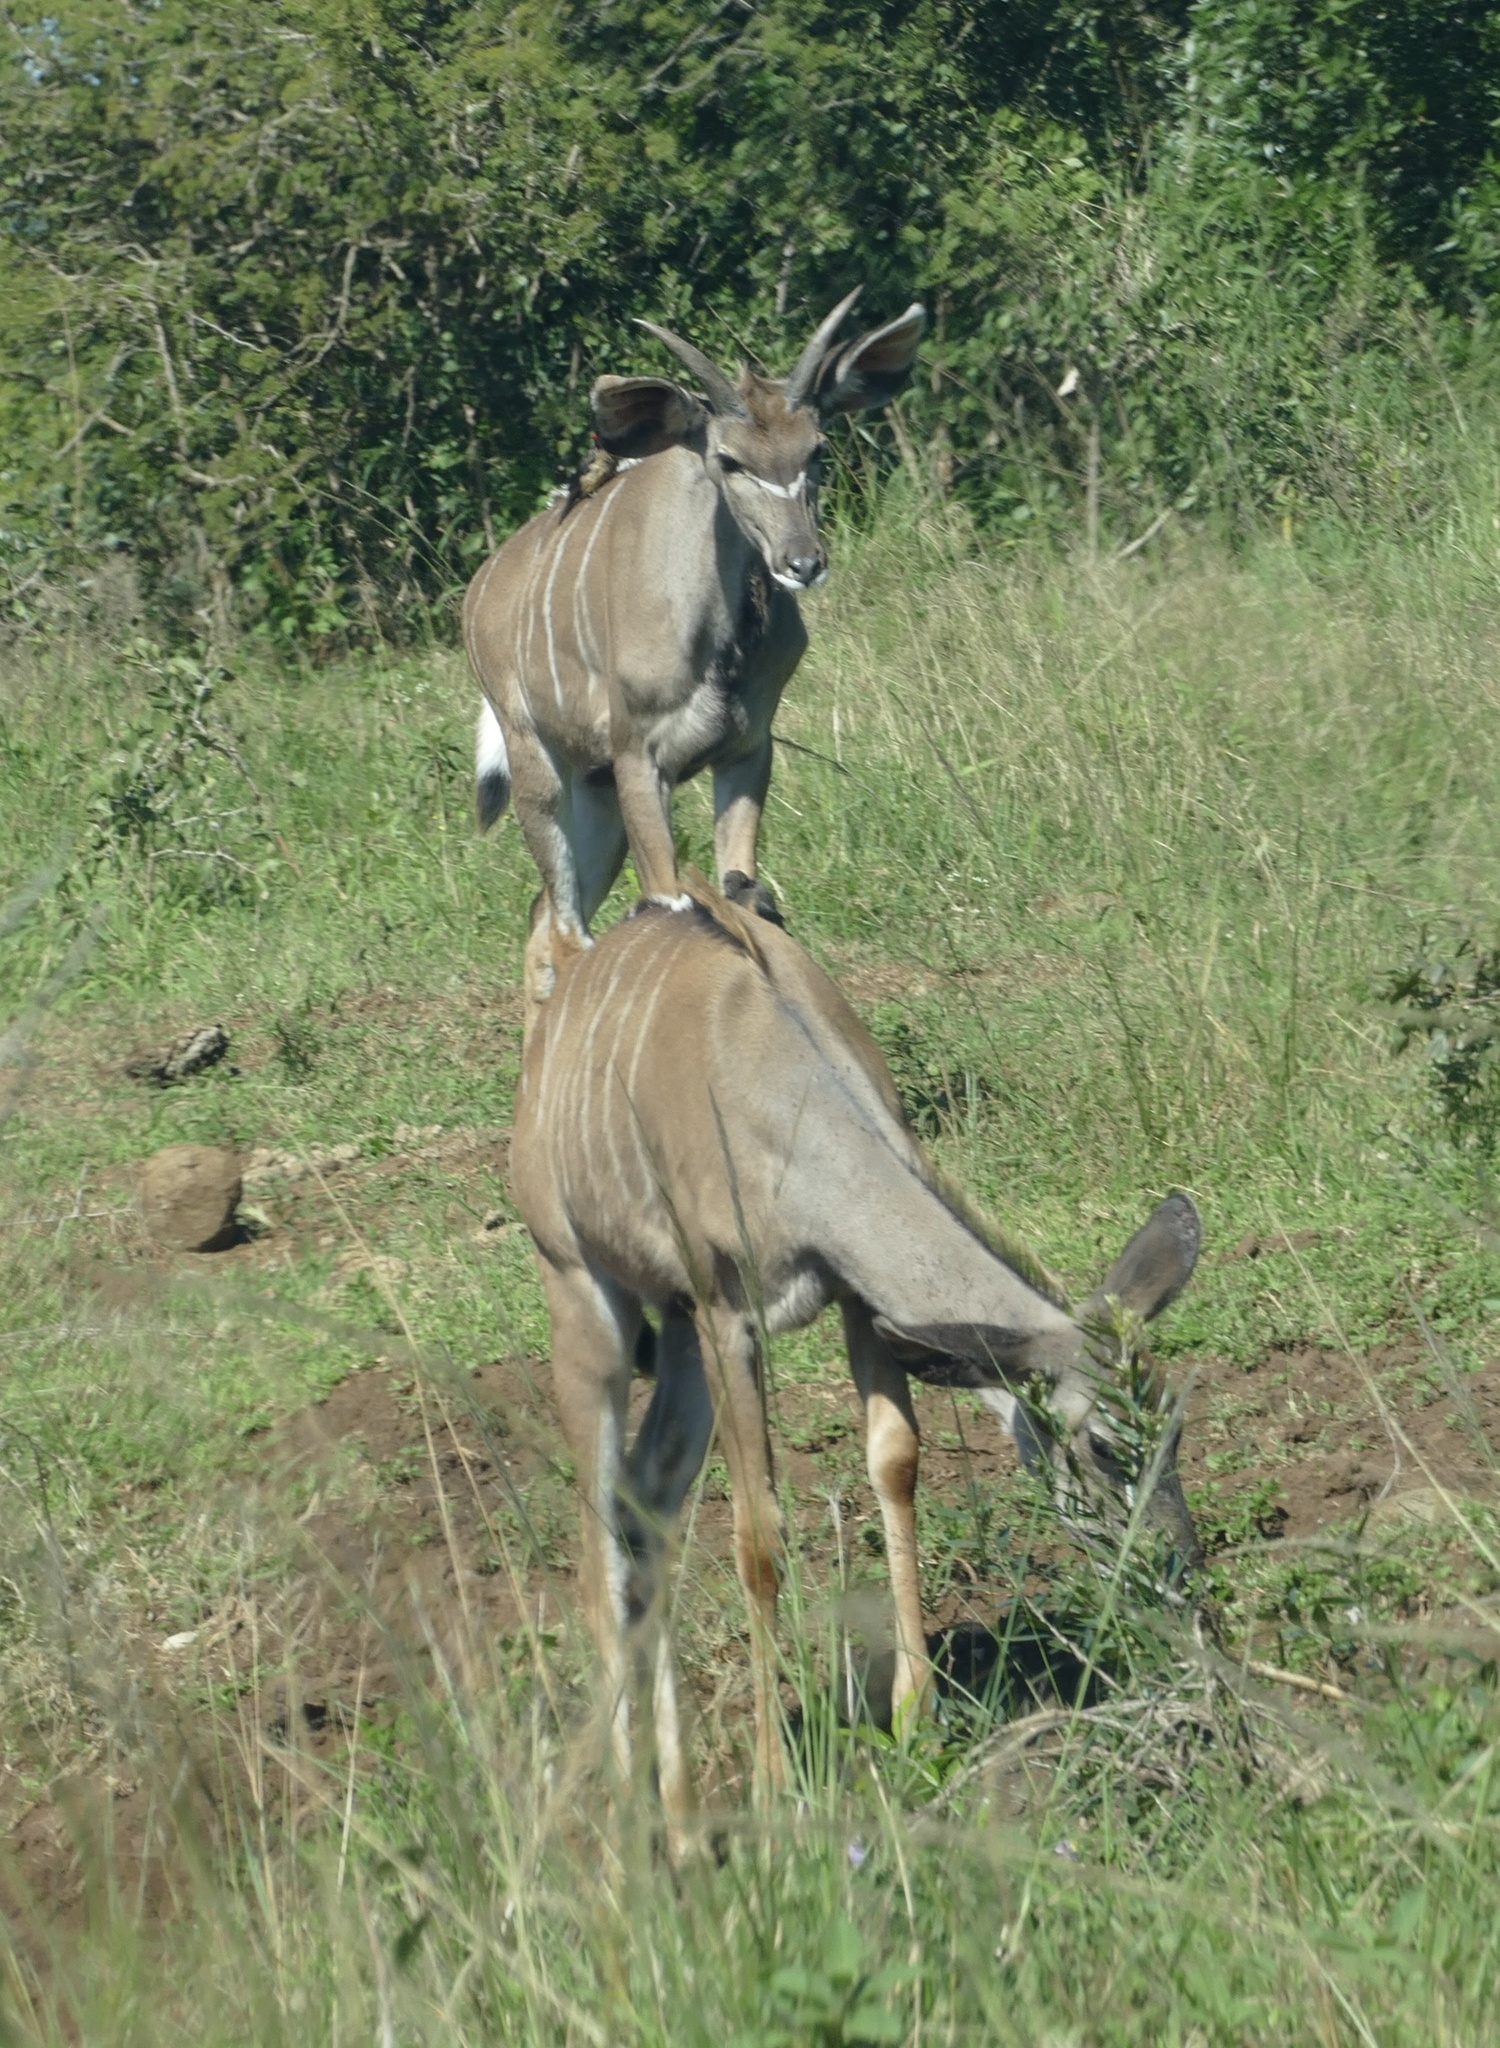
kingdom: Animalia
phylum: Chordata
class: Mammalia
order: Artiodactyla
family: Bovidae
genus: Tragelaphus
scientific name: Tragelaphus strepsiceros
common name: Greater kudu
